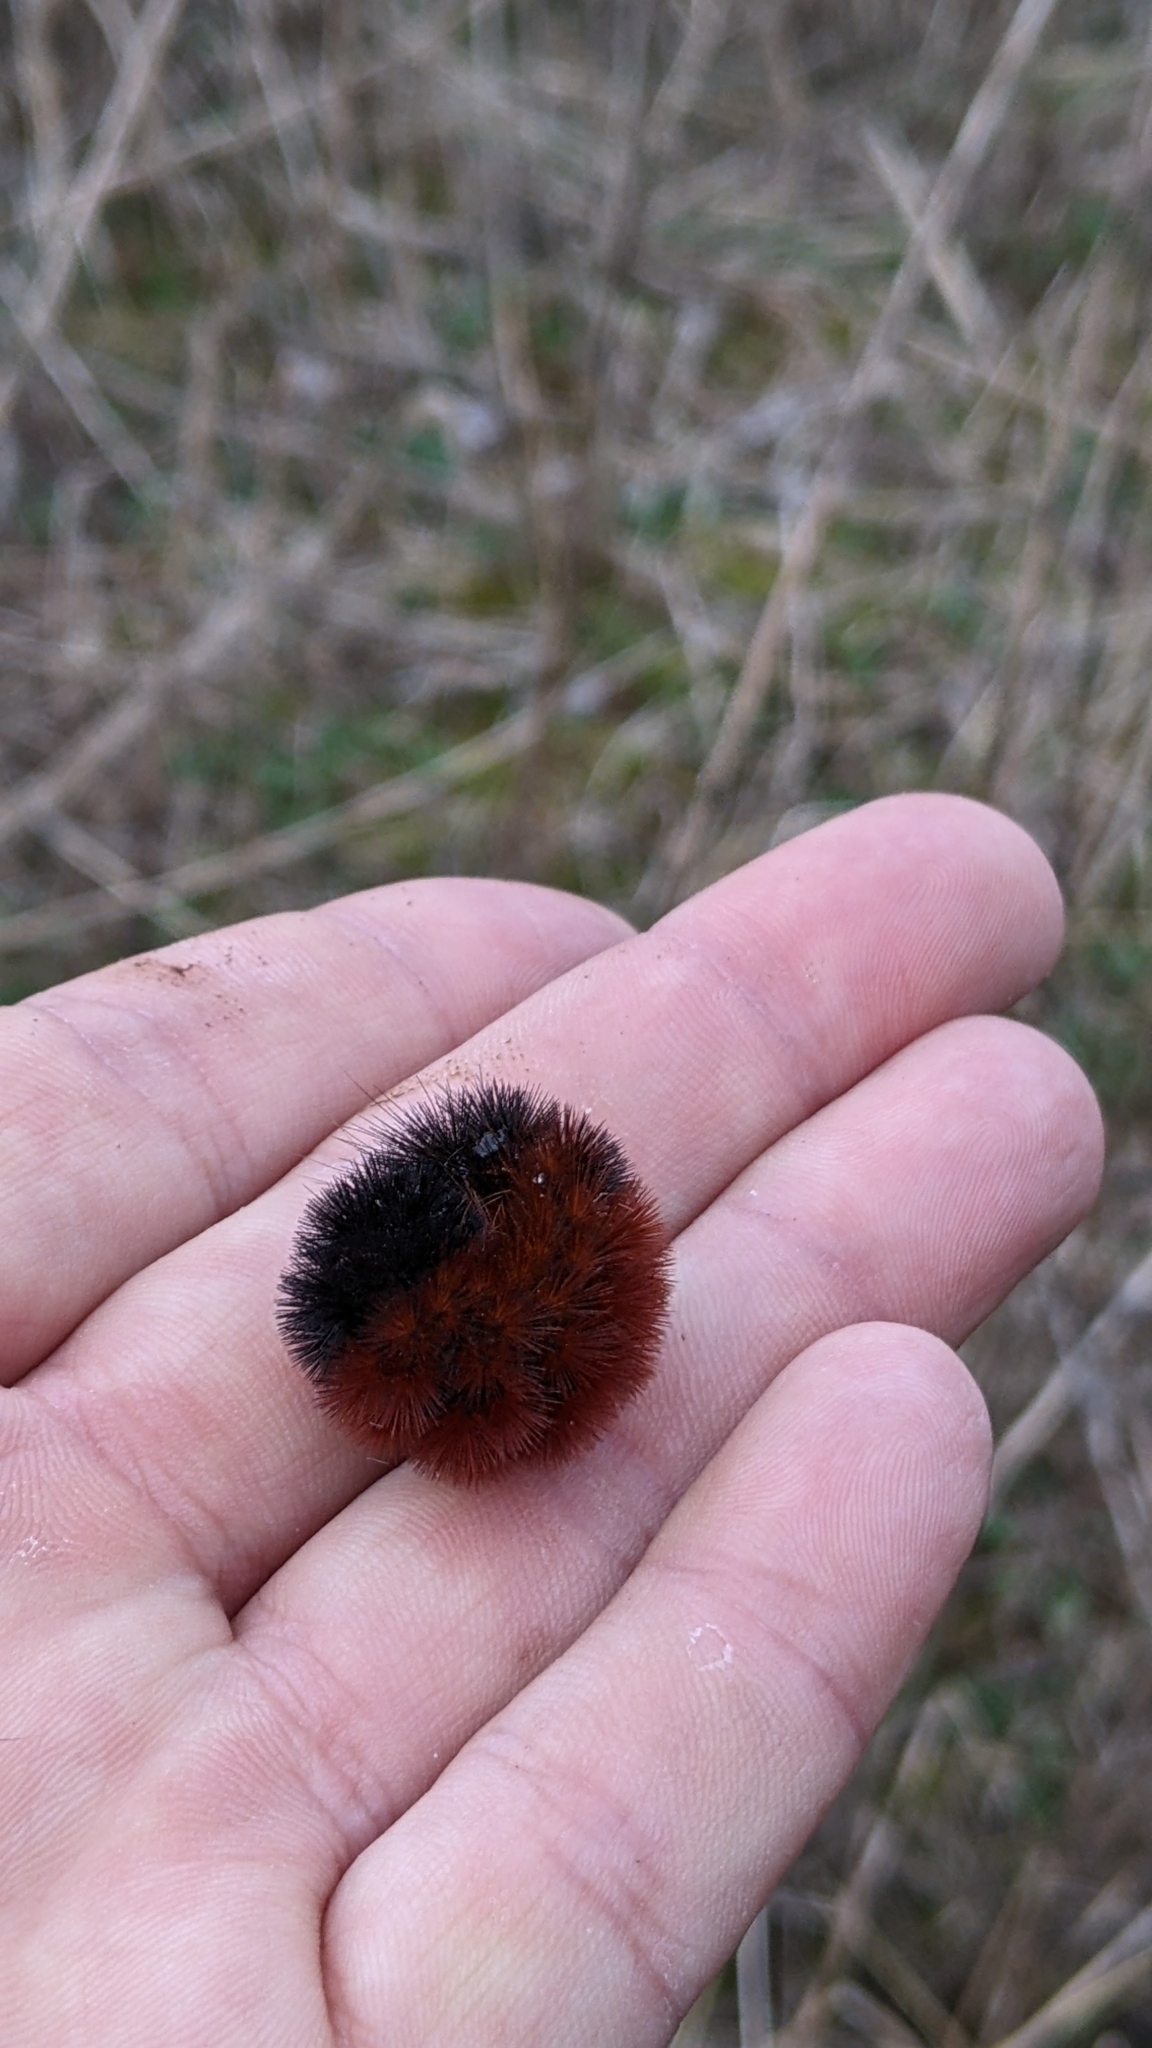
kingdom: Animalia
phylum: Arthropoda
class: Insecta
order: Lepidoptera
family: Erebidae
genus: Pyrrharctia
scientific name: Pyrrharctia isabella
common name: Isabella tiger moth
